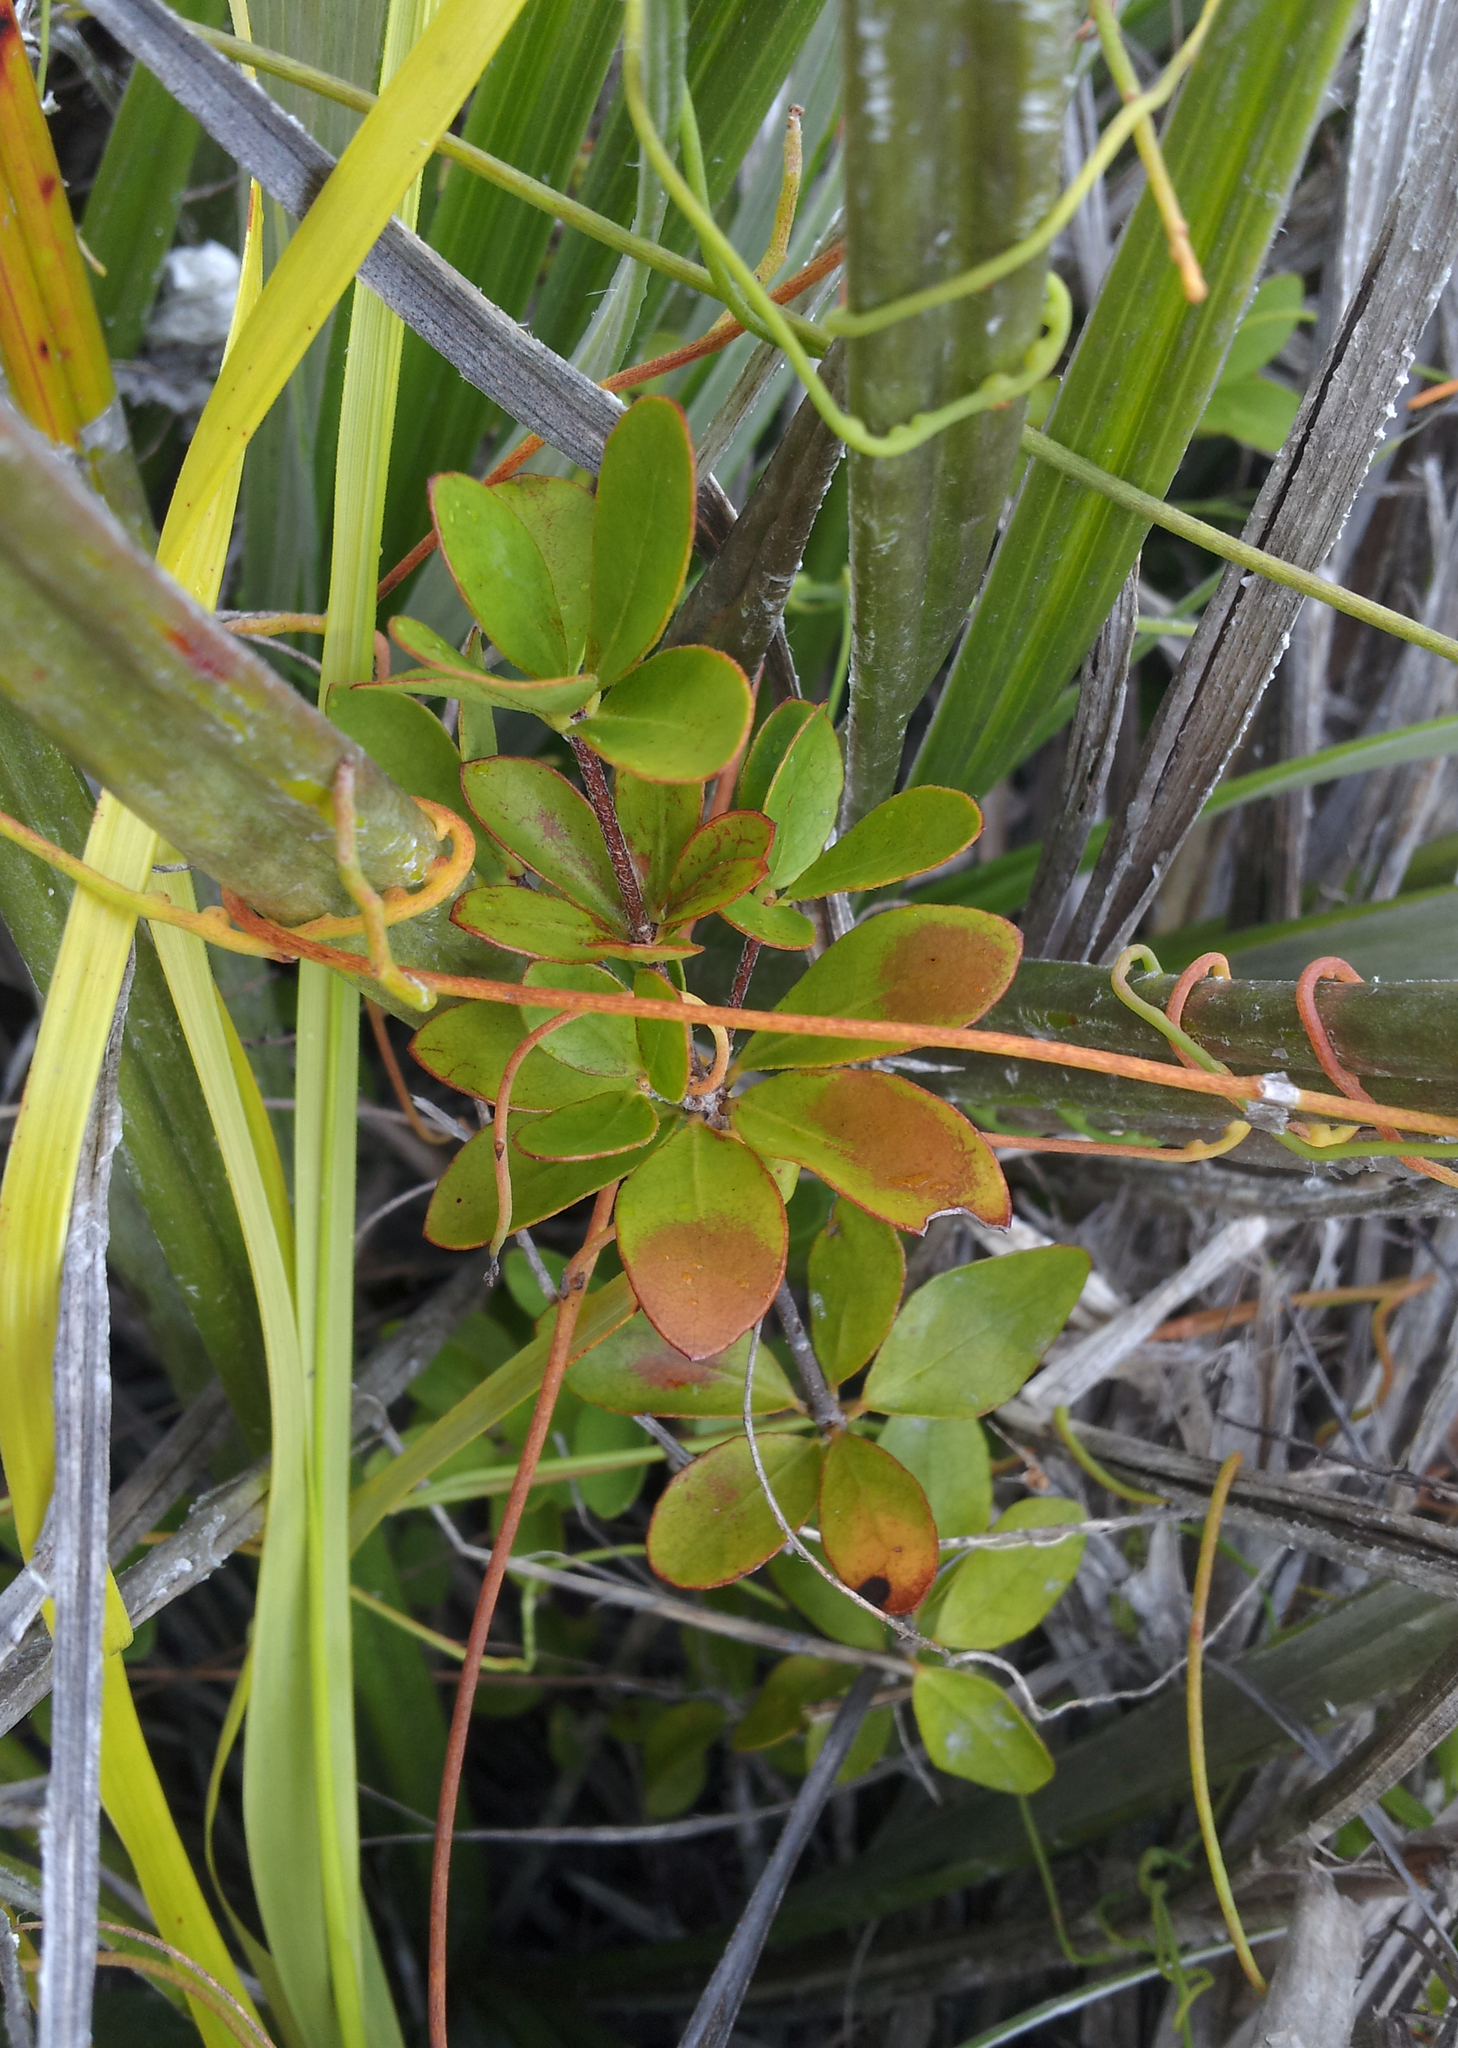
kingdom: Plantae
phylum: Tracheophyta
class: Magnoliopsida
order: Apiales
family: Pittosporaceae
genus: Pittosporum
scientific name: Pittosporum pimeleoides
